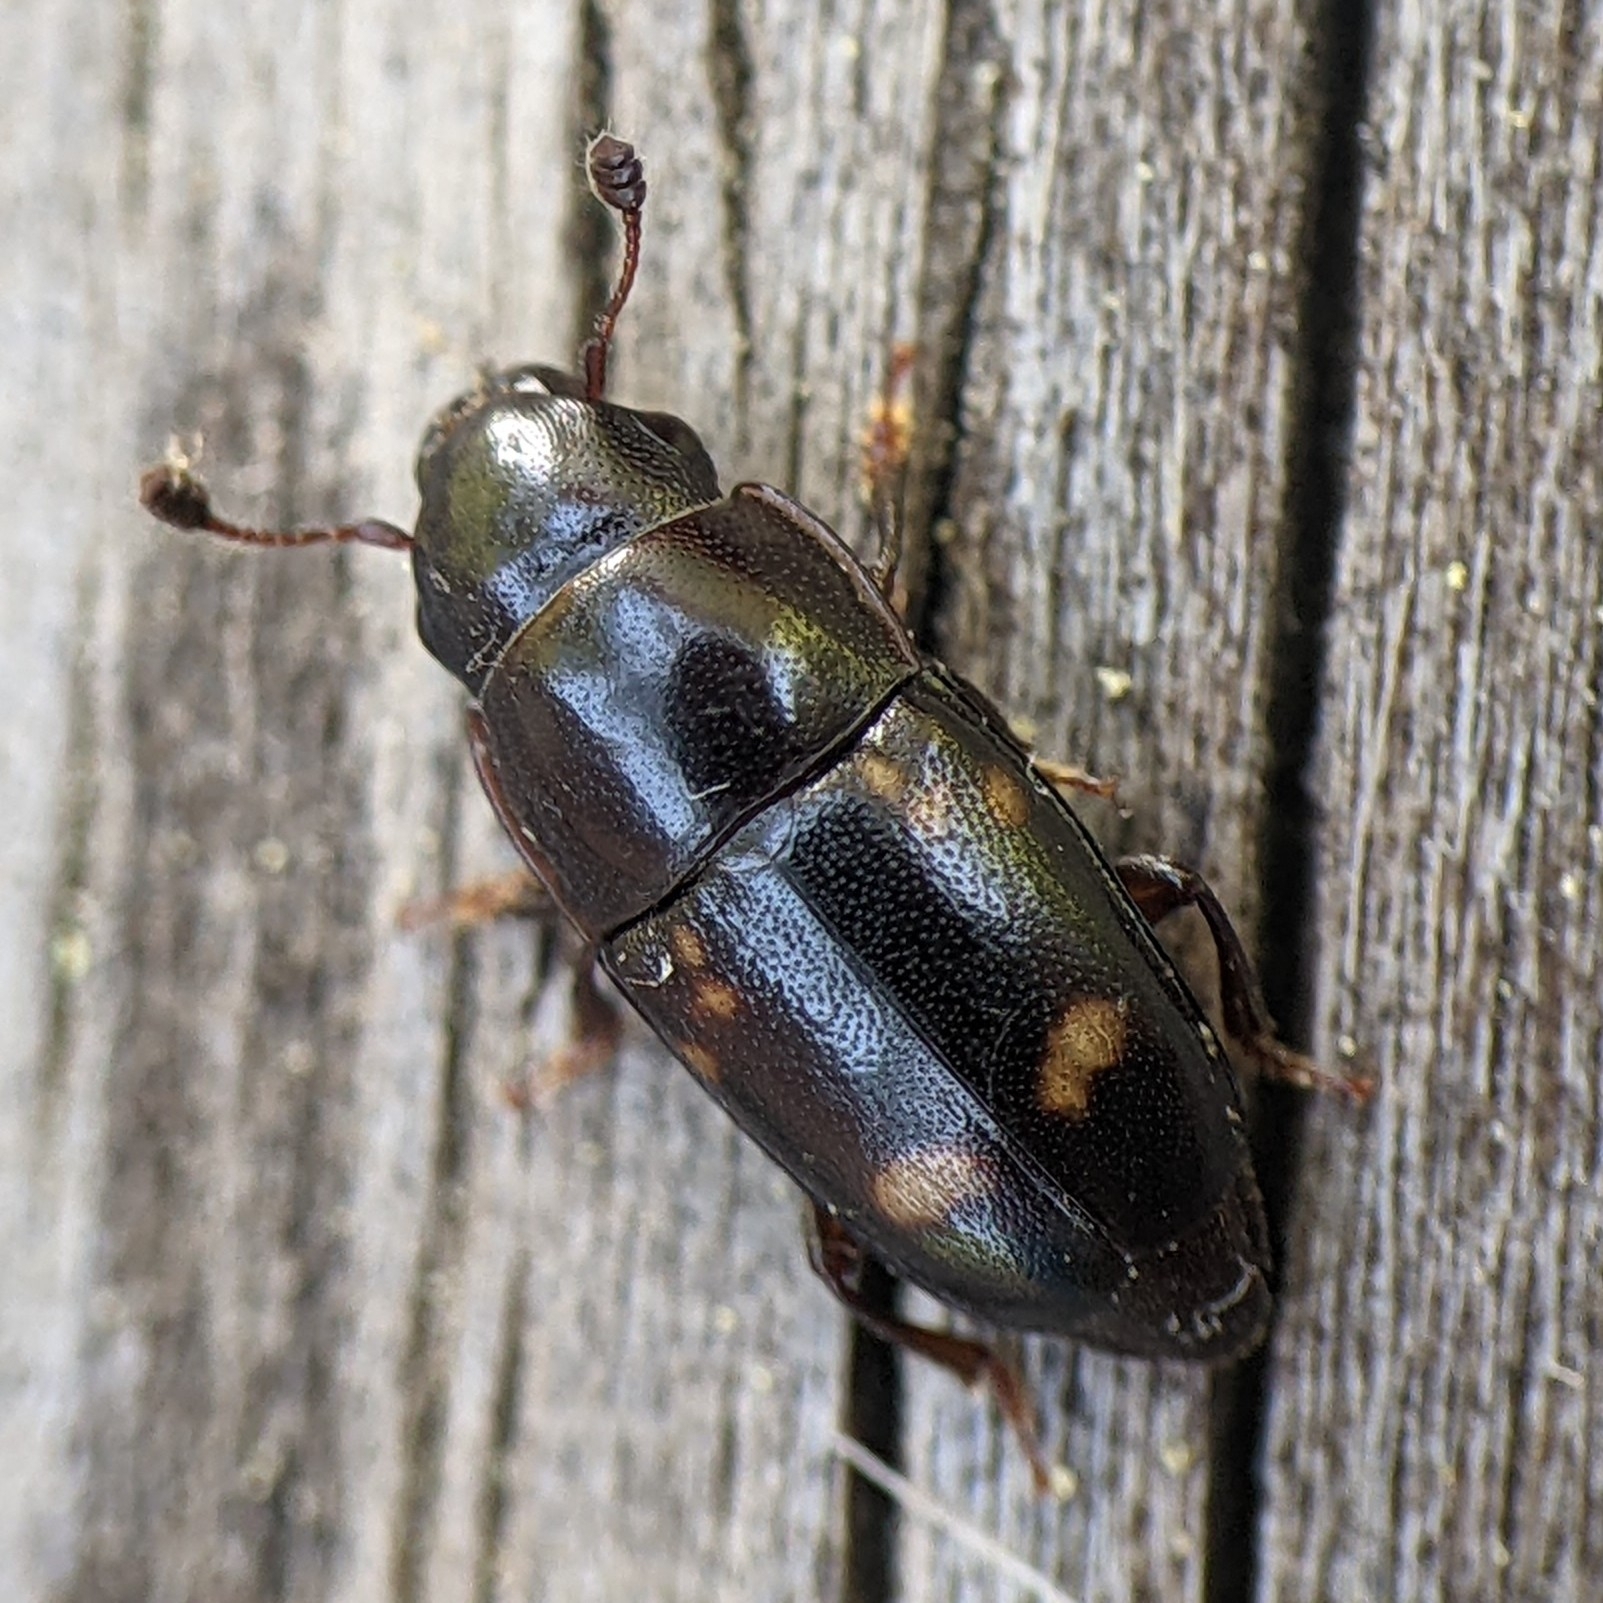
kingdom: Animalia
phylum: Arthropoda
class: Insecta
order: Coleoptera
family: Nitidulidae
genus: Glischrochilus
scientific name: Glischrochilus quadrisignatus
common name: Picnic beetle
